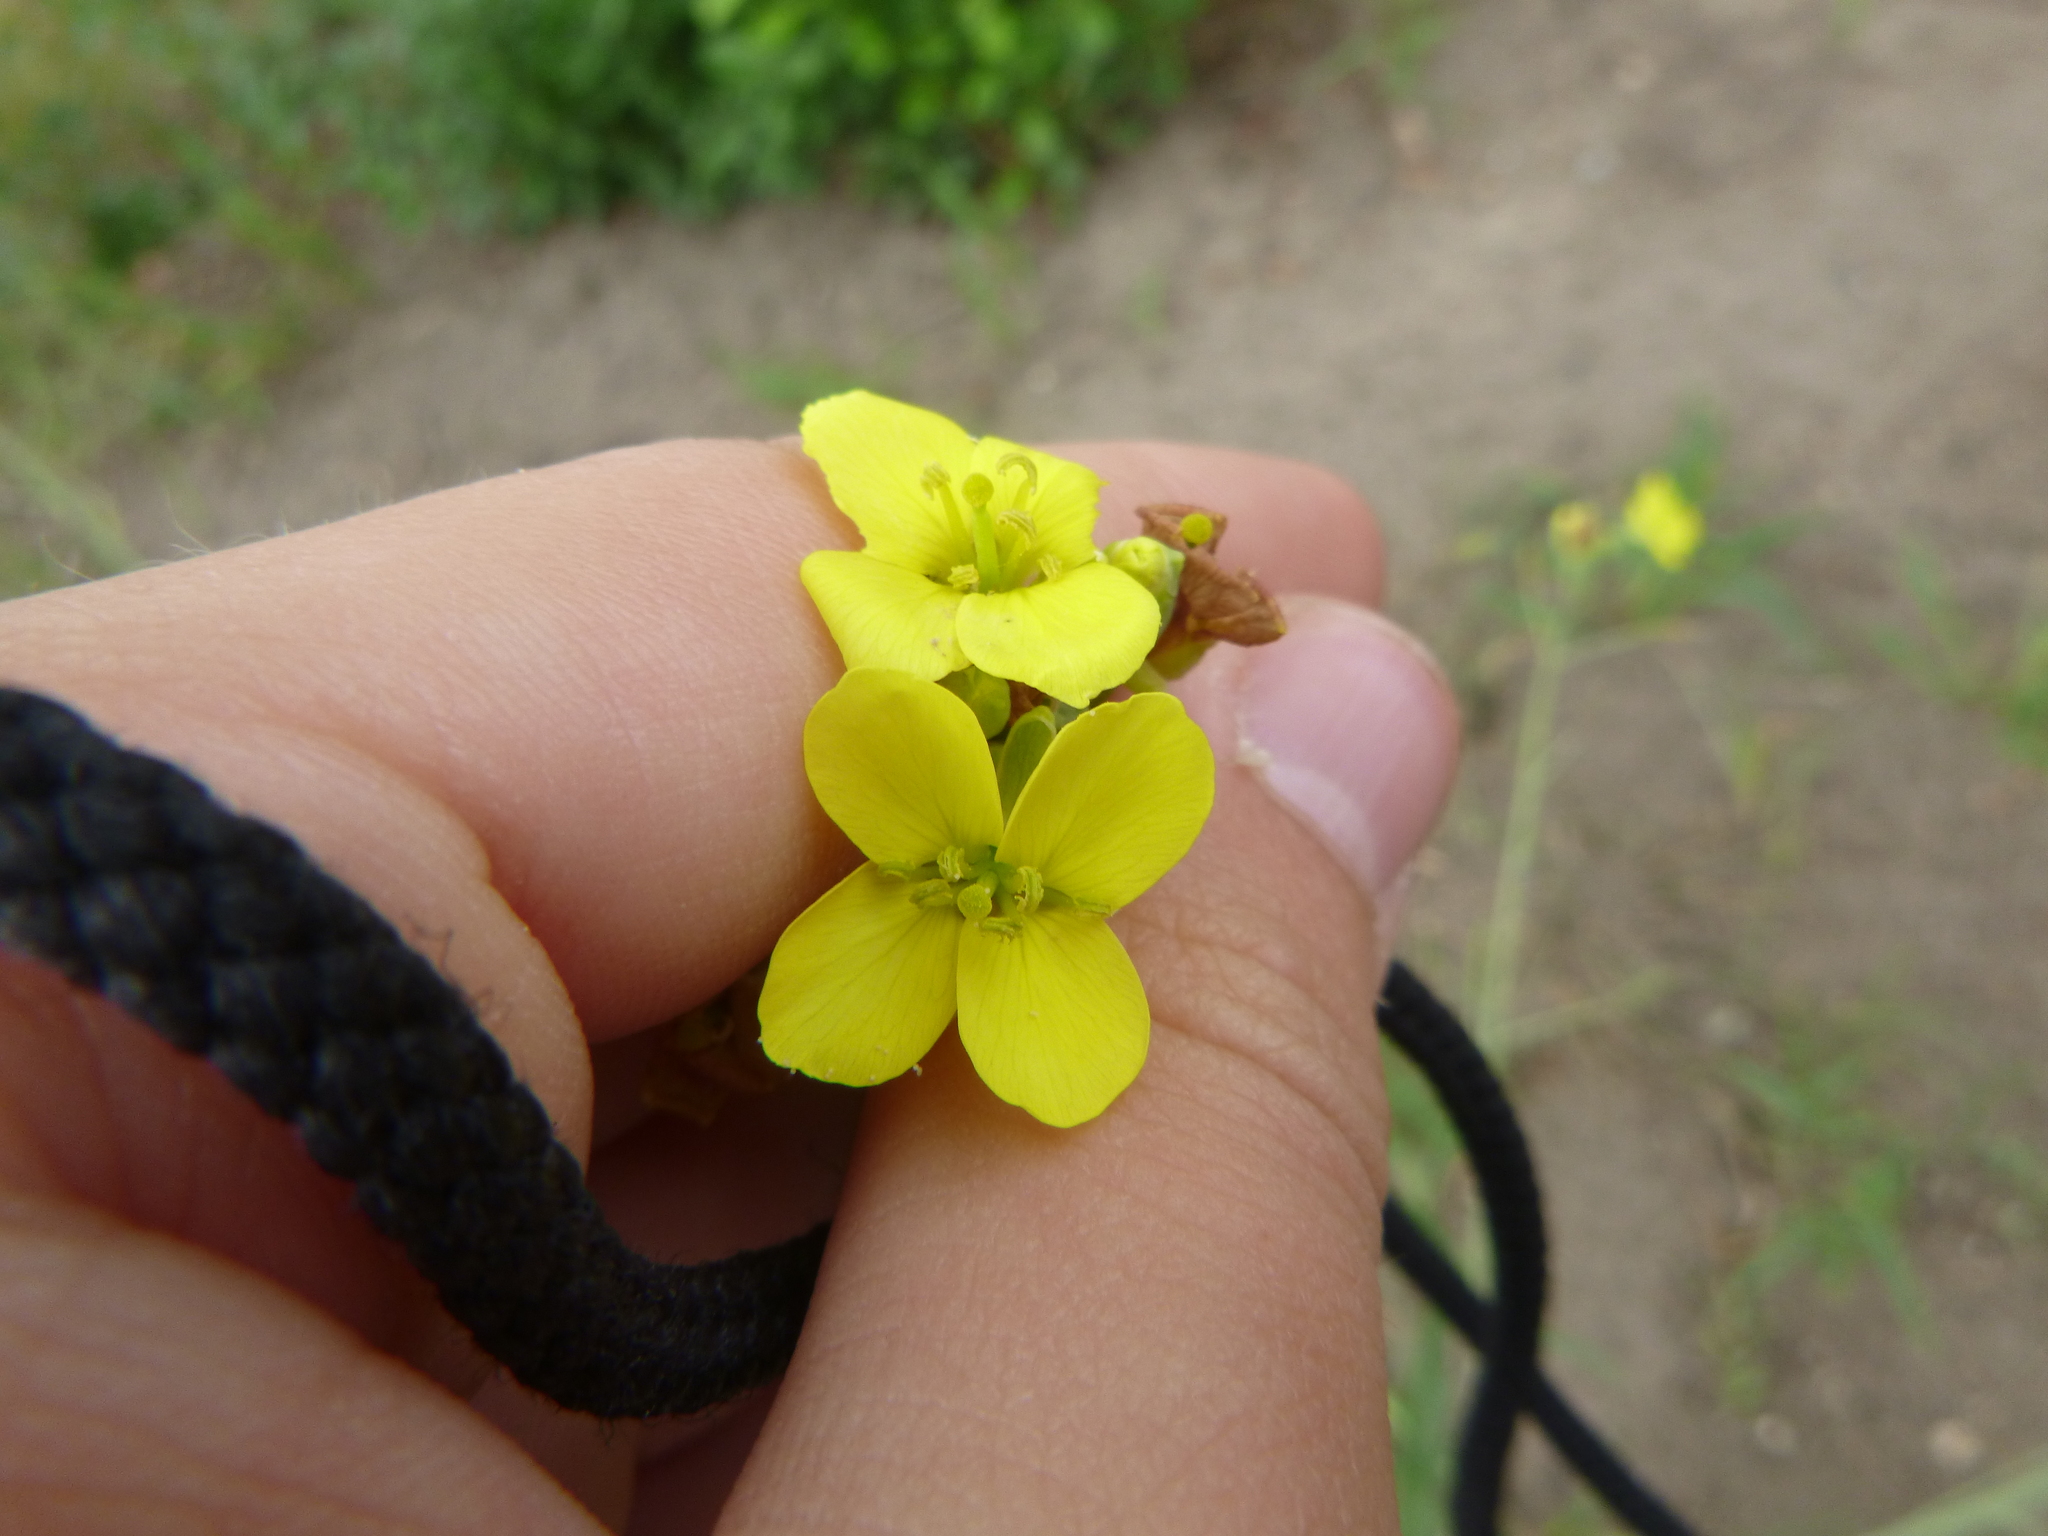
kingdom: Plantae
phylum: Tracheophyta
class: Magnoliopsida
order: Brassicales
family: Brassicaceae
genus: Diplotaxis
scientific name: Diplotaxis tenuifolia
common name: Perennial wall-rocket
